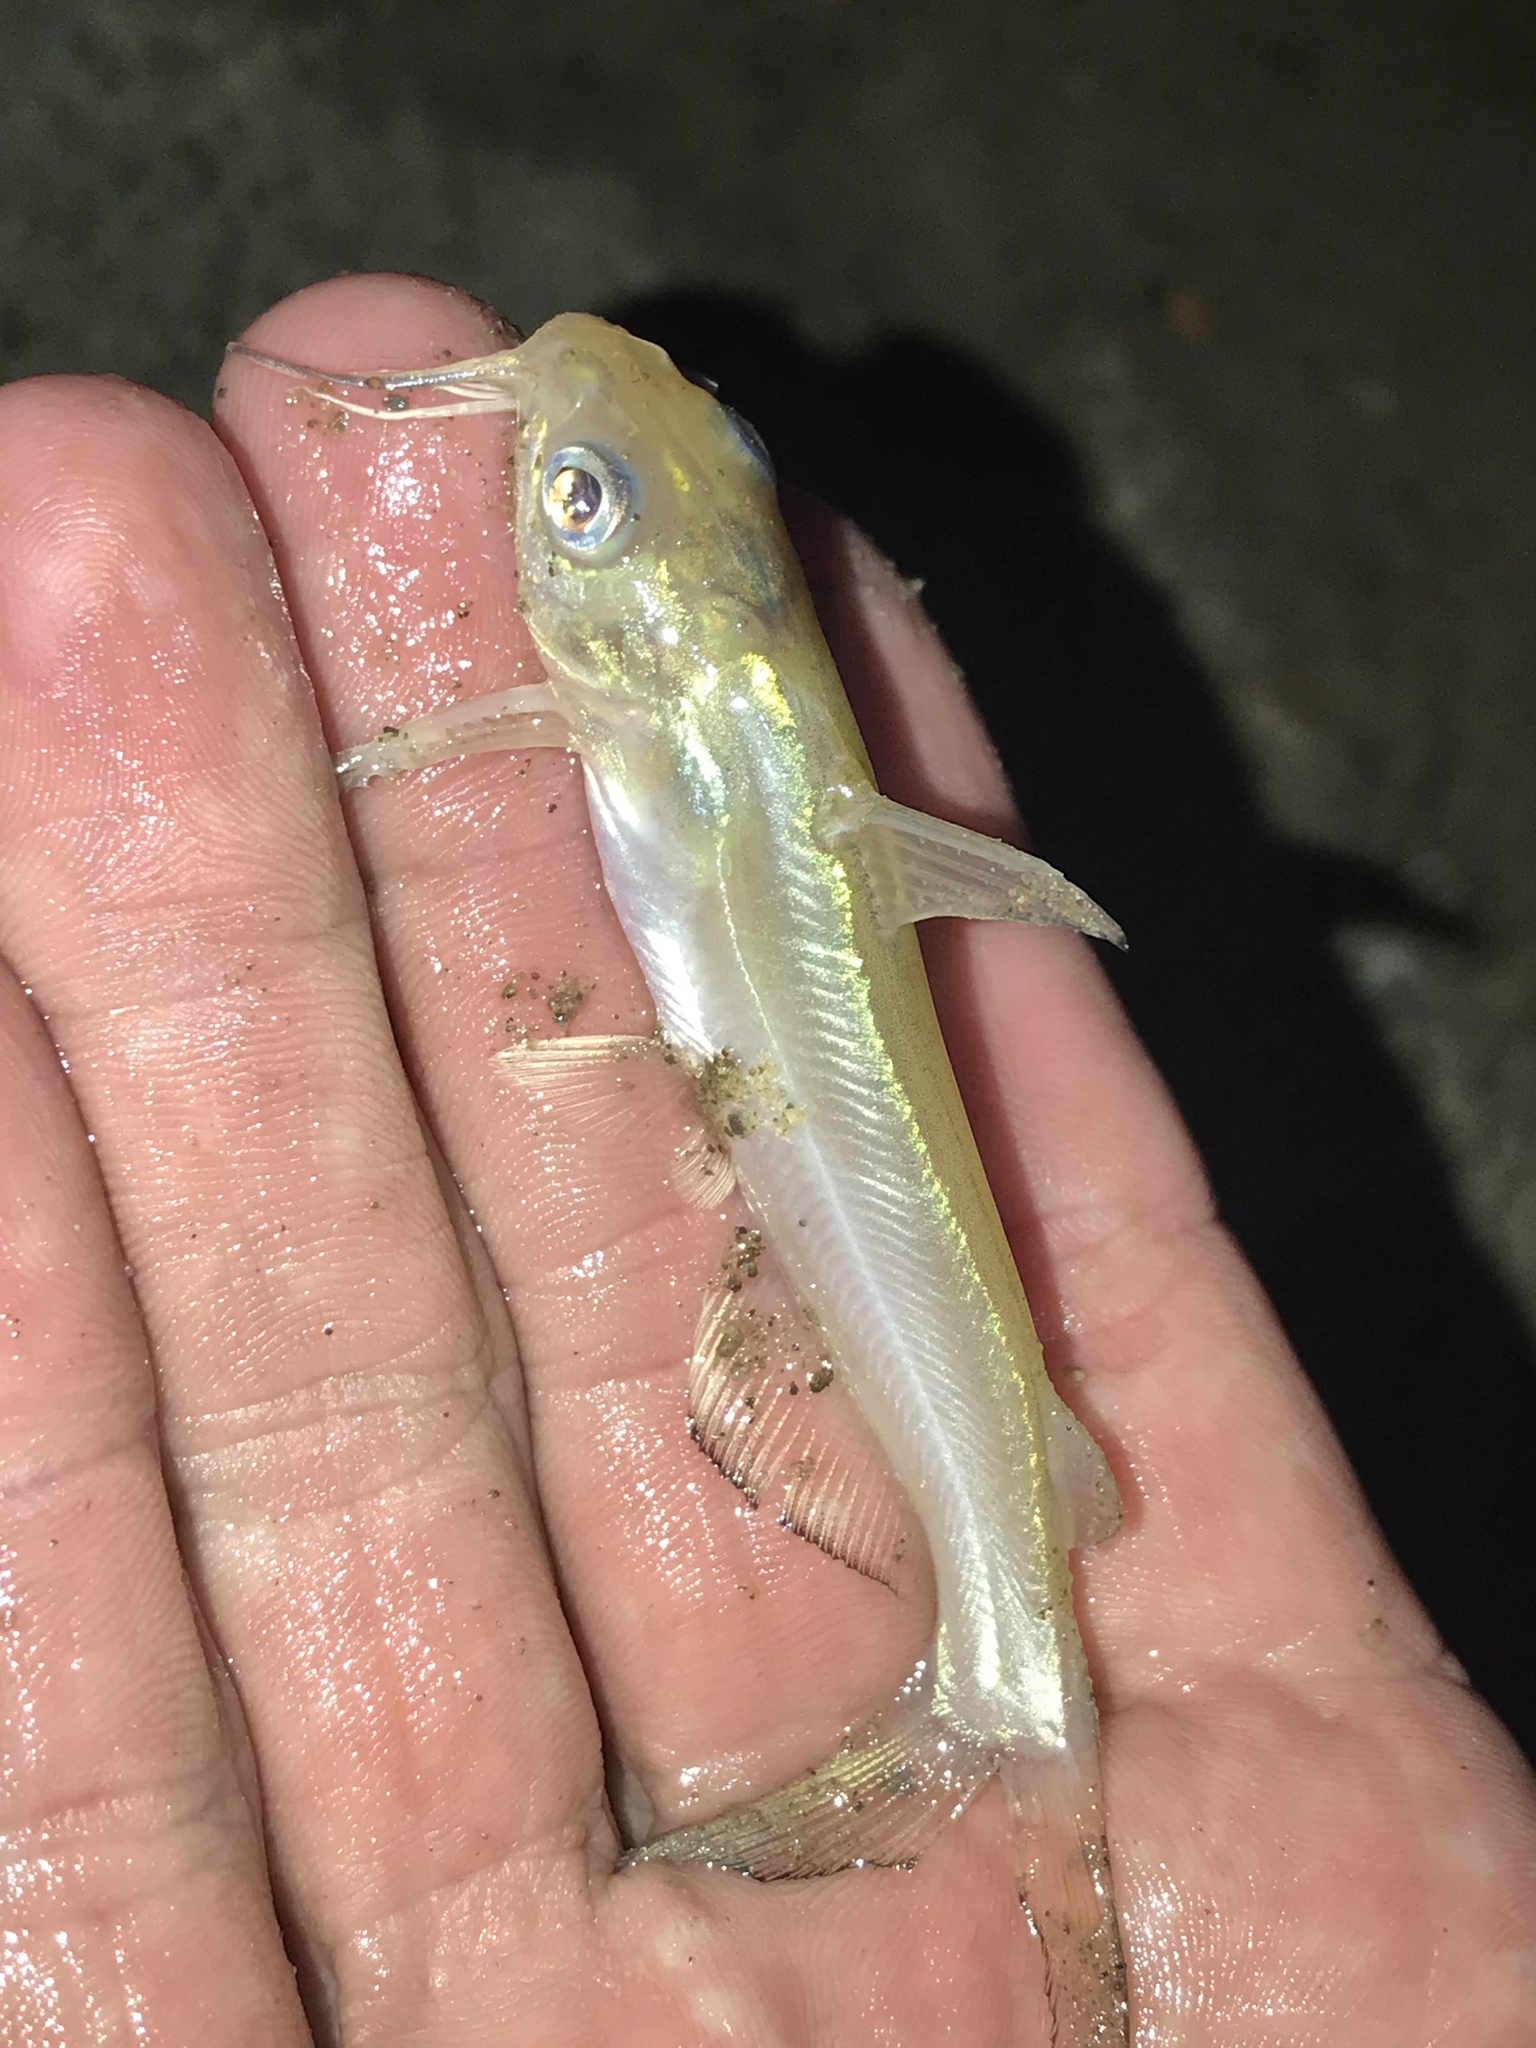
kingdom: Animalia
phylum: Chordata
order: Siluriformes
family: Ictaluridae
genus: Ictalurus
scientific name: Ictalurus punctatus
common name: Channel catfish
